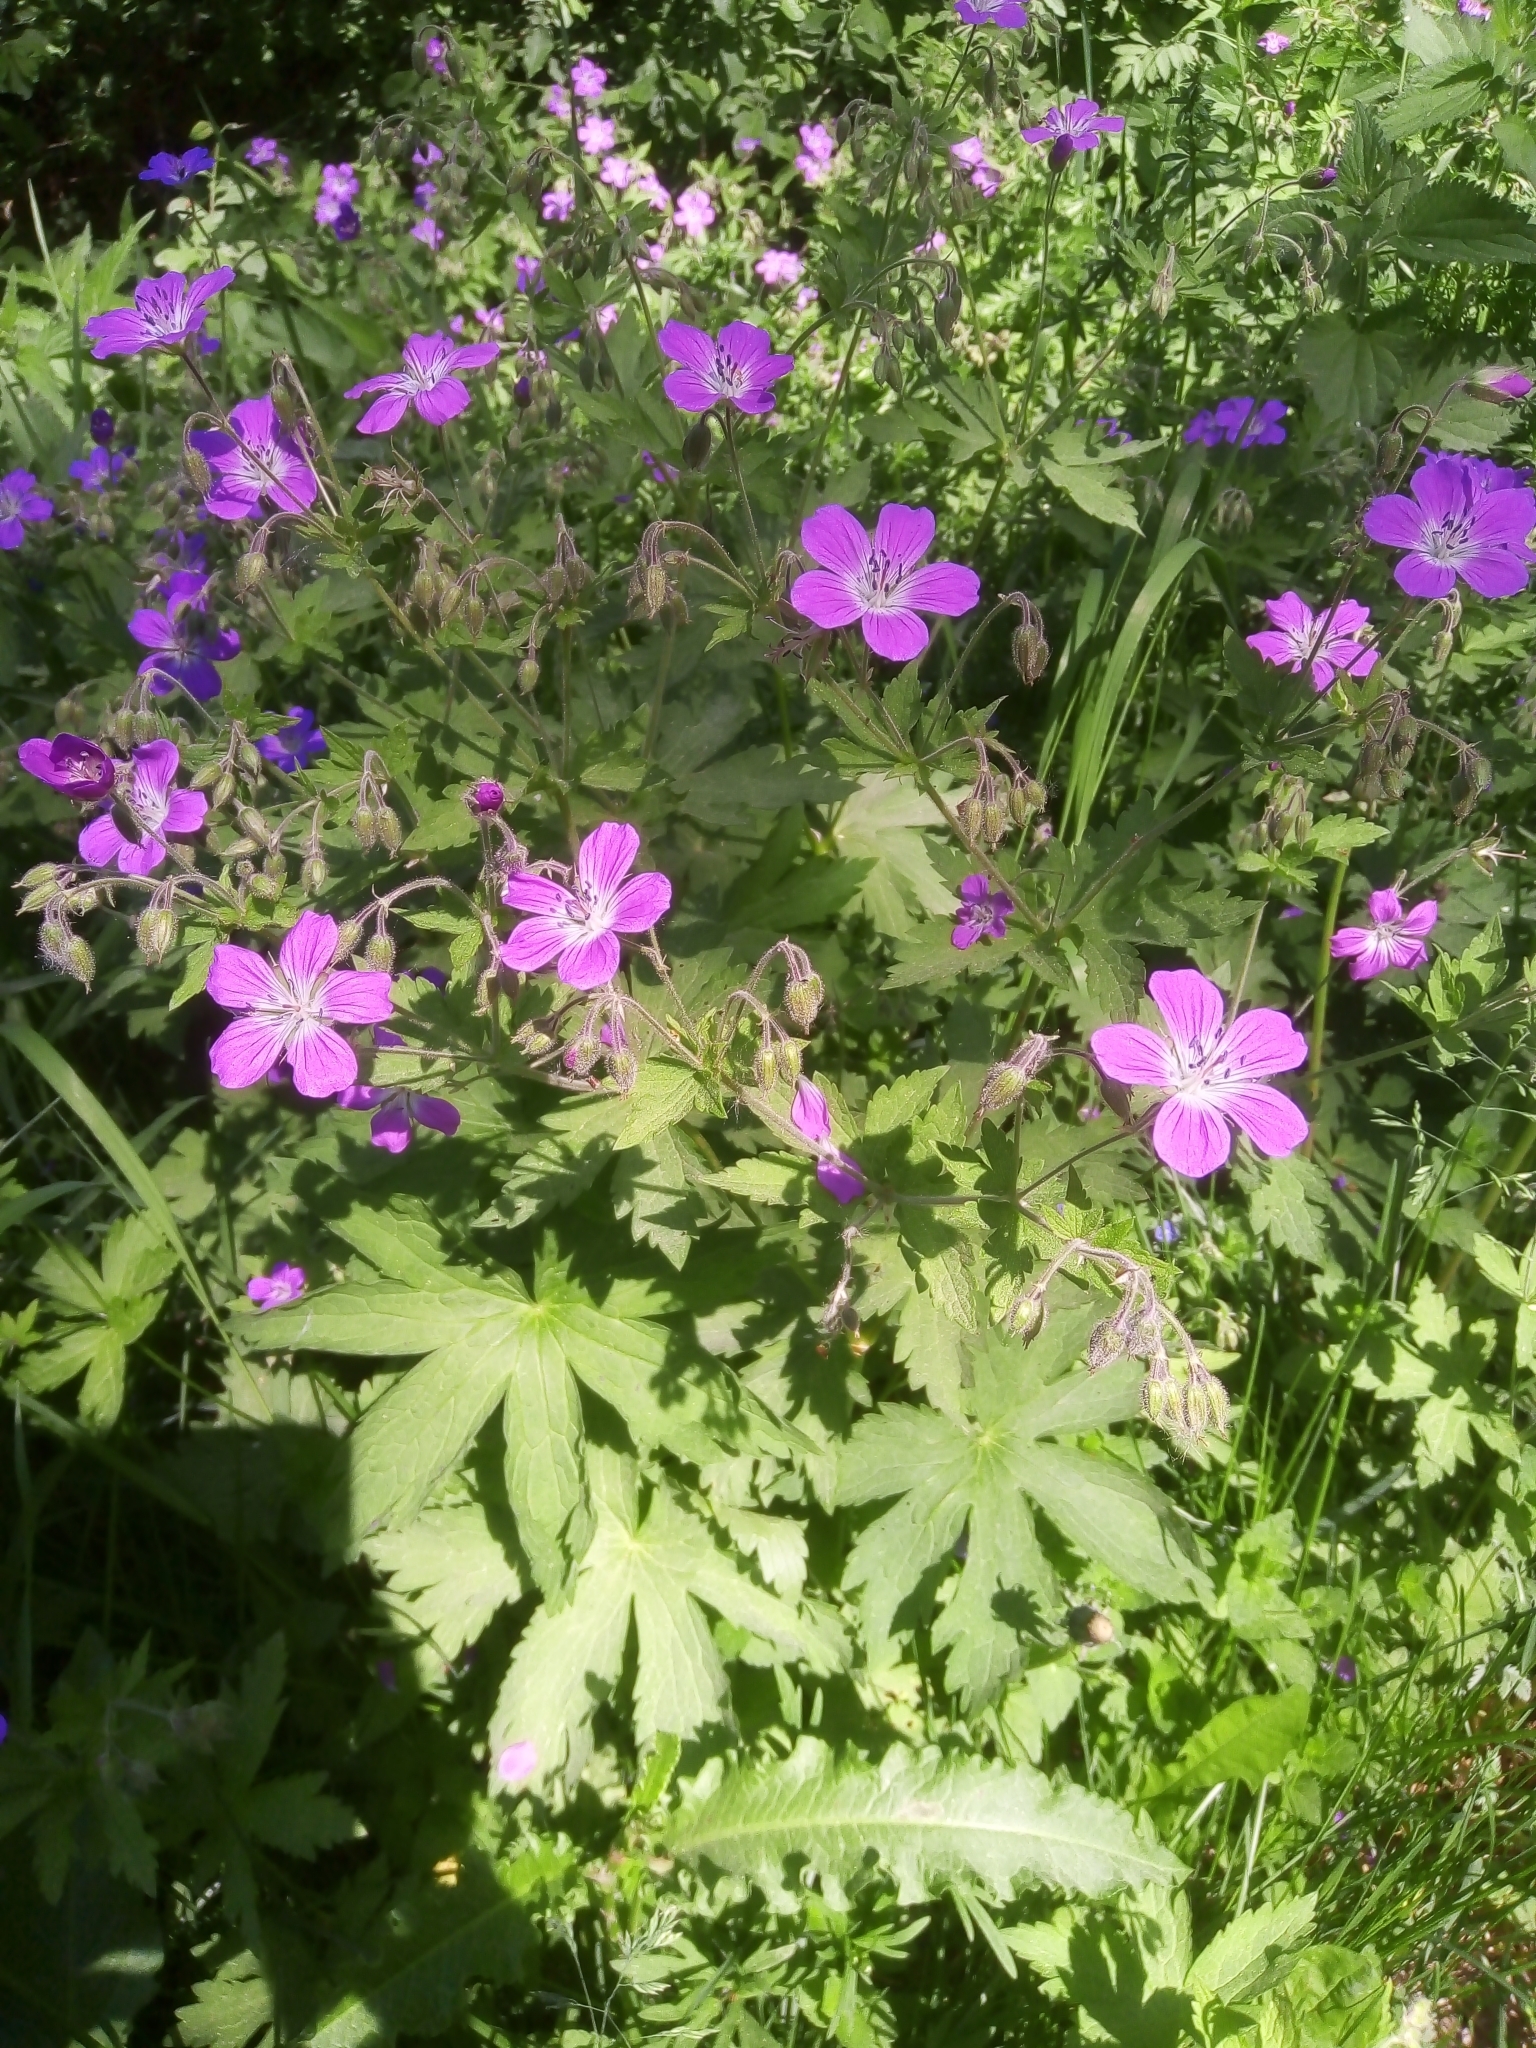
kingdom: Plantae
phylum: Tracheophyta
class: Magnoliopsida
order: Geraniales
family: Geraniaceae
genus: Geranium
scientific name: Geranium sylvaticum
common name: Wood crane's-bill
